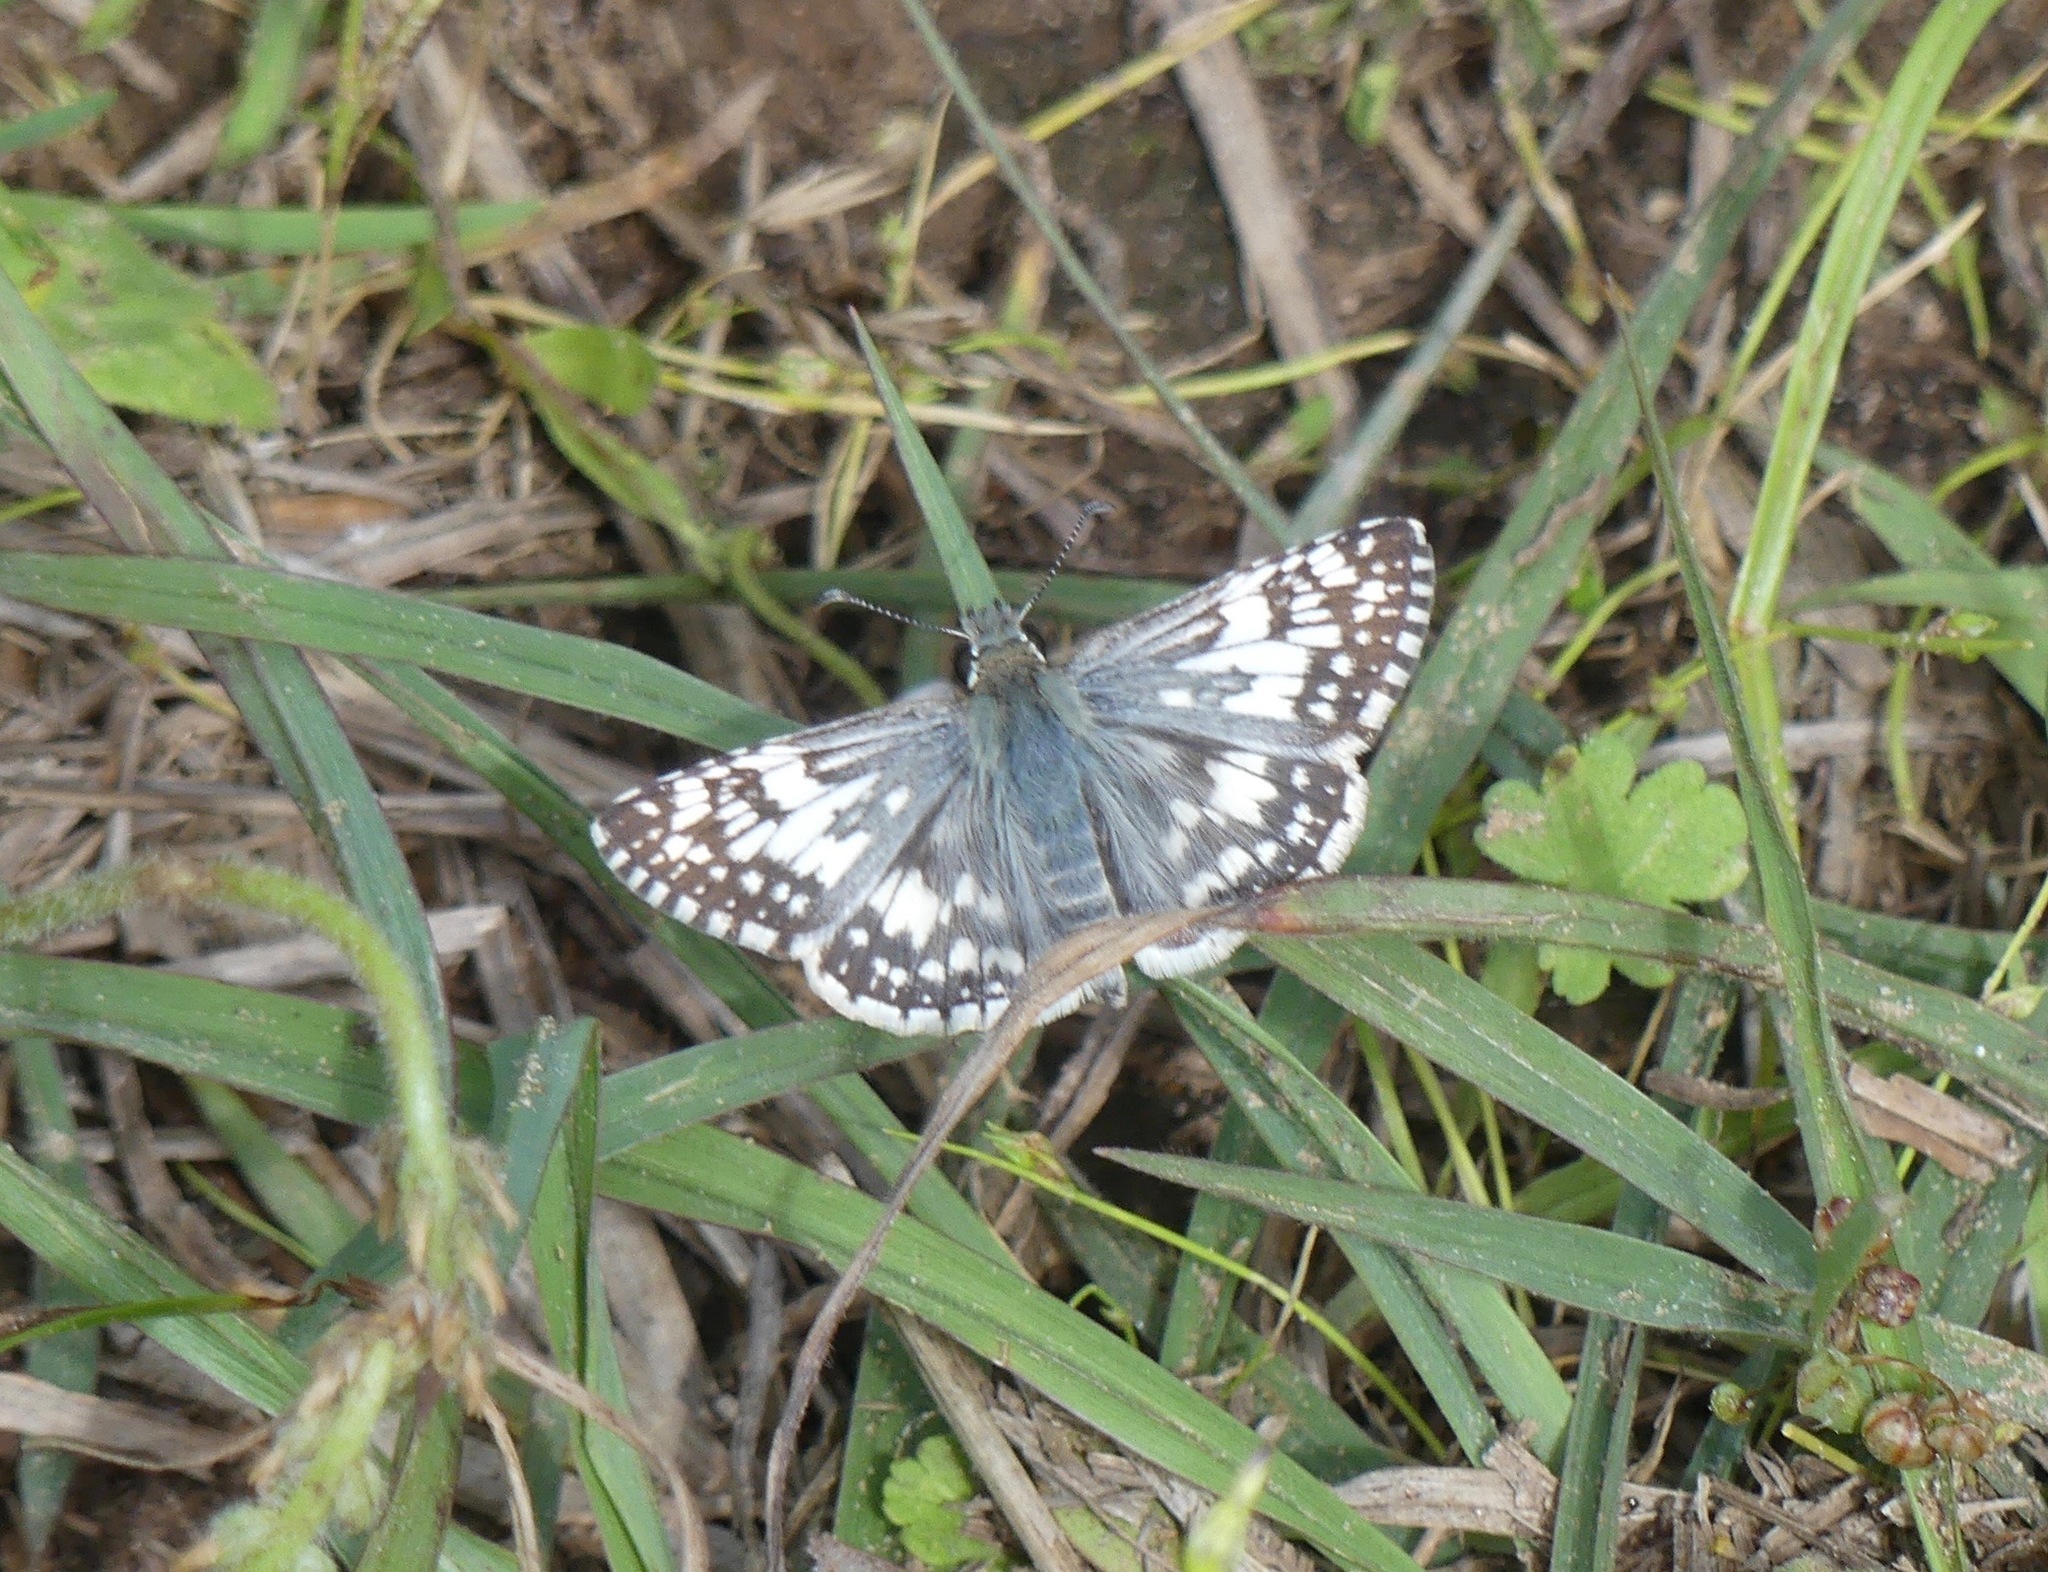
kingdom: Animalia
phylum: Arthropoda
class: Insecta
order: Lepidoptera
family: Hesperiidae
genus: Burnsius
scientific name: Burnsius
